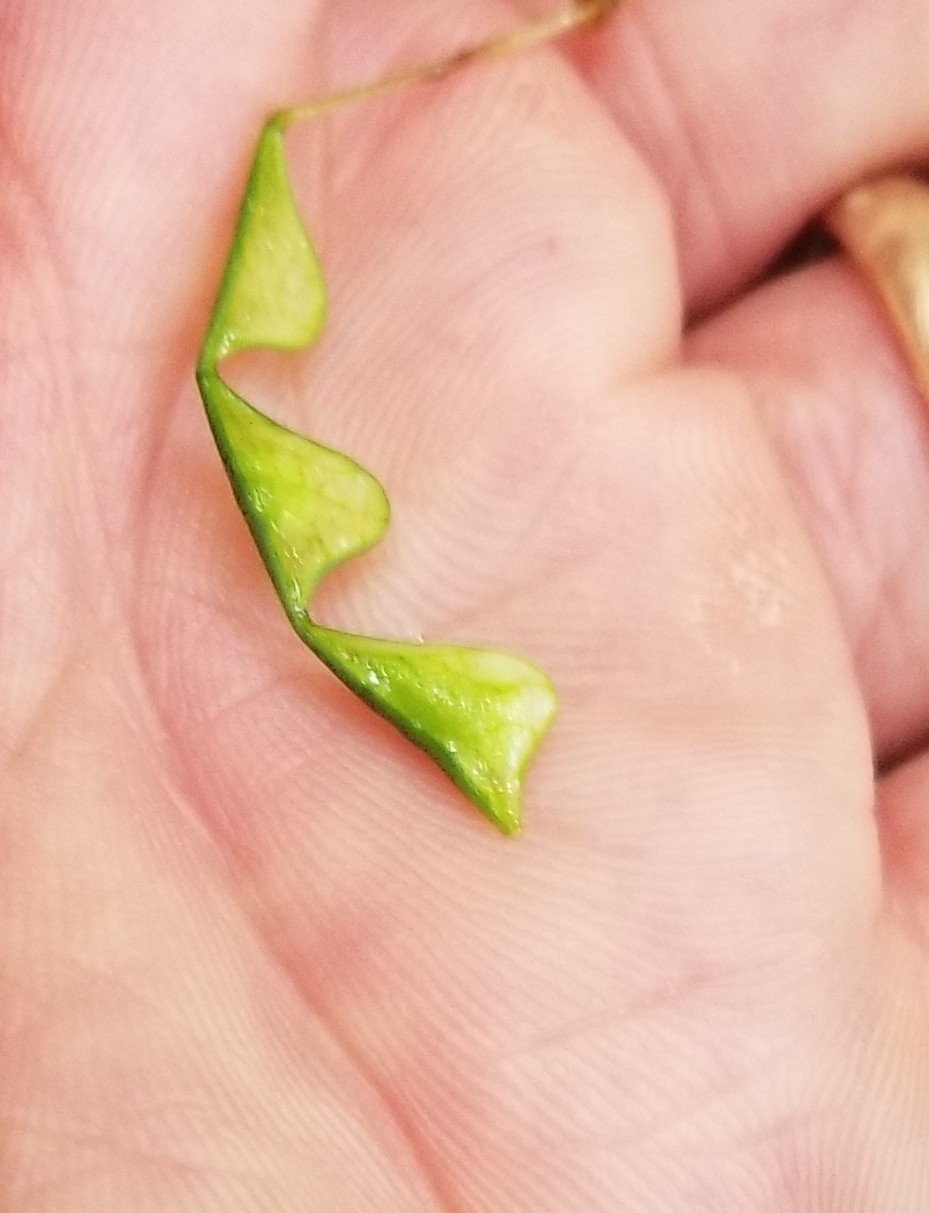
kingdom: Plantae
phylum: Tracheophyta
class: Magnoliopsida
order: Fabales
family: Fabaceae
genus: Hylodesmum
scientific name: Hylodesmum nudiflorum
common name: Bare-stemmed tick-trefoil
